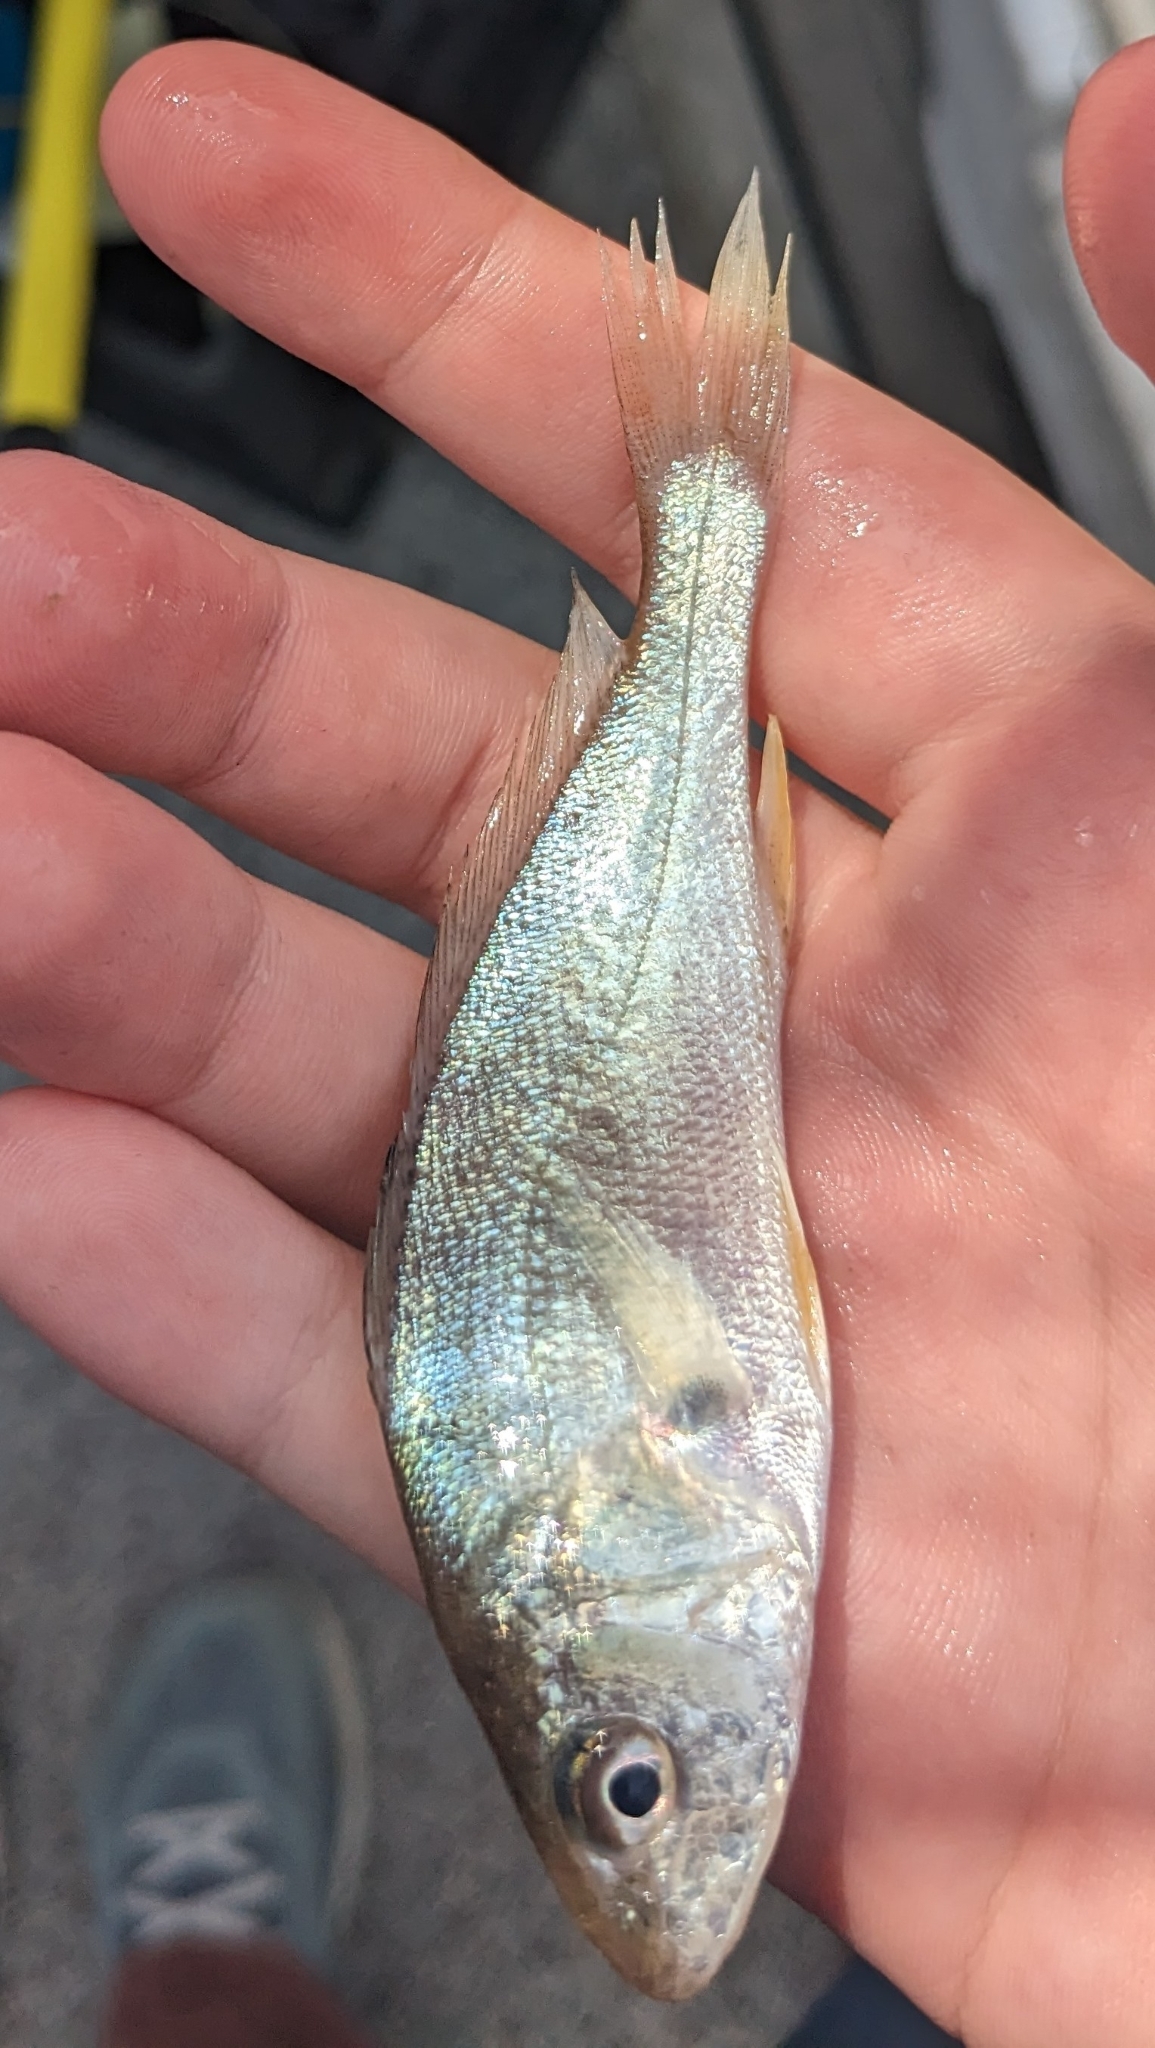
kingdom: Animalia
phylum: Chordata
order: Perciformes
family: Sciaenidae
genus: Micropogonias
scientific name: Micropogonias undulatus
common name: Atlantic croaker
